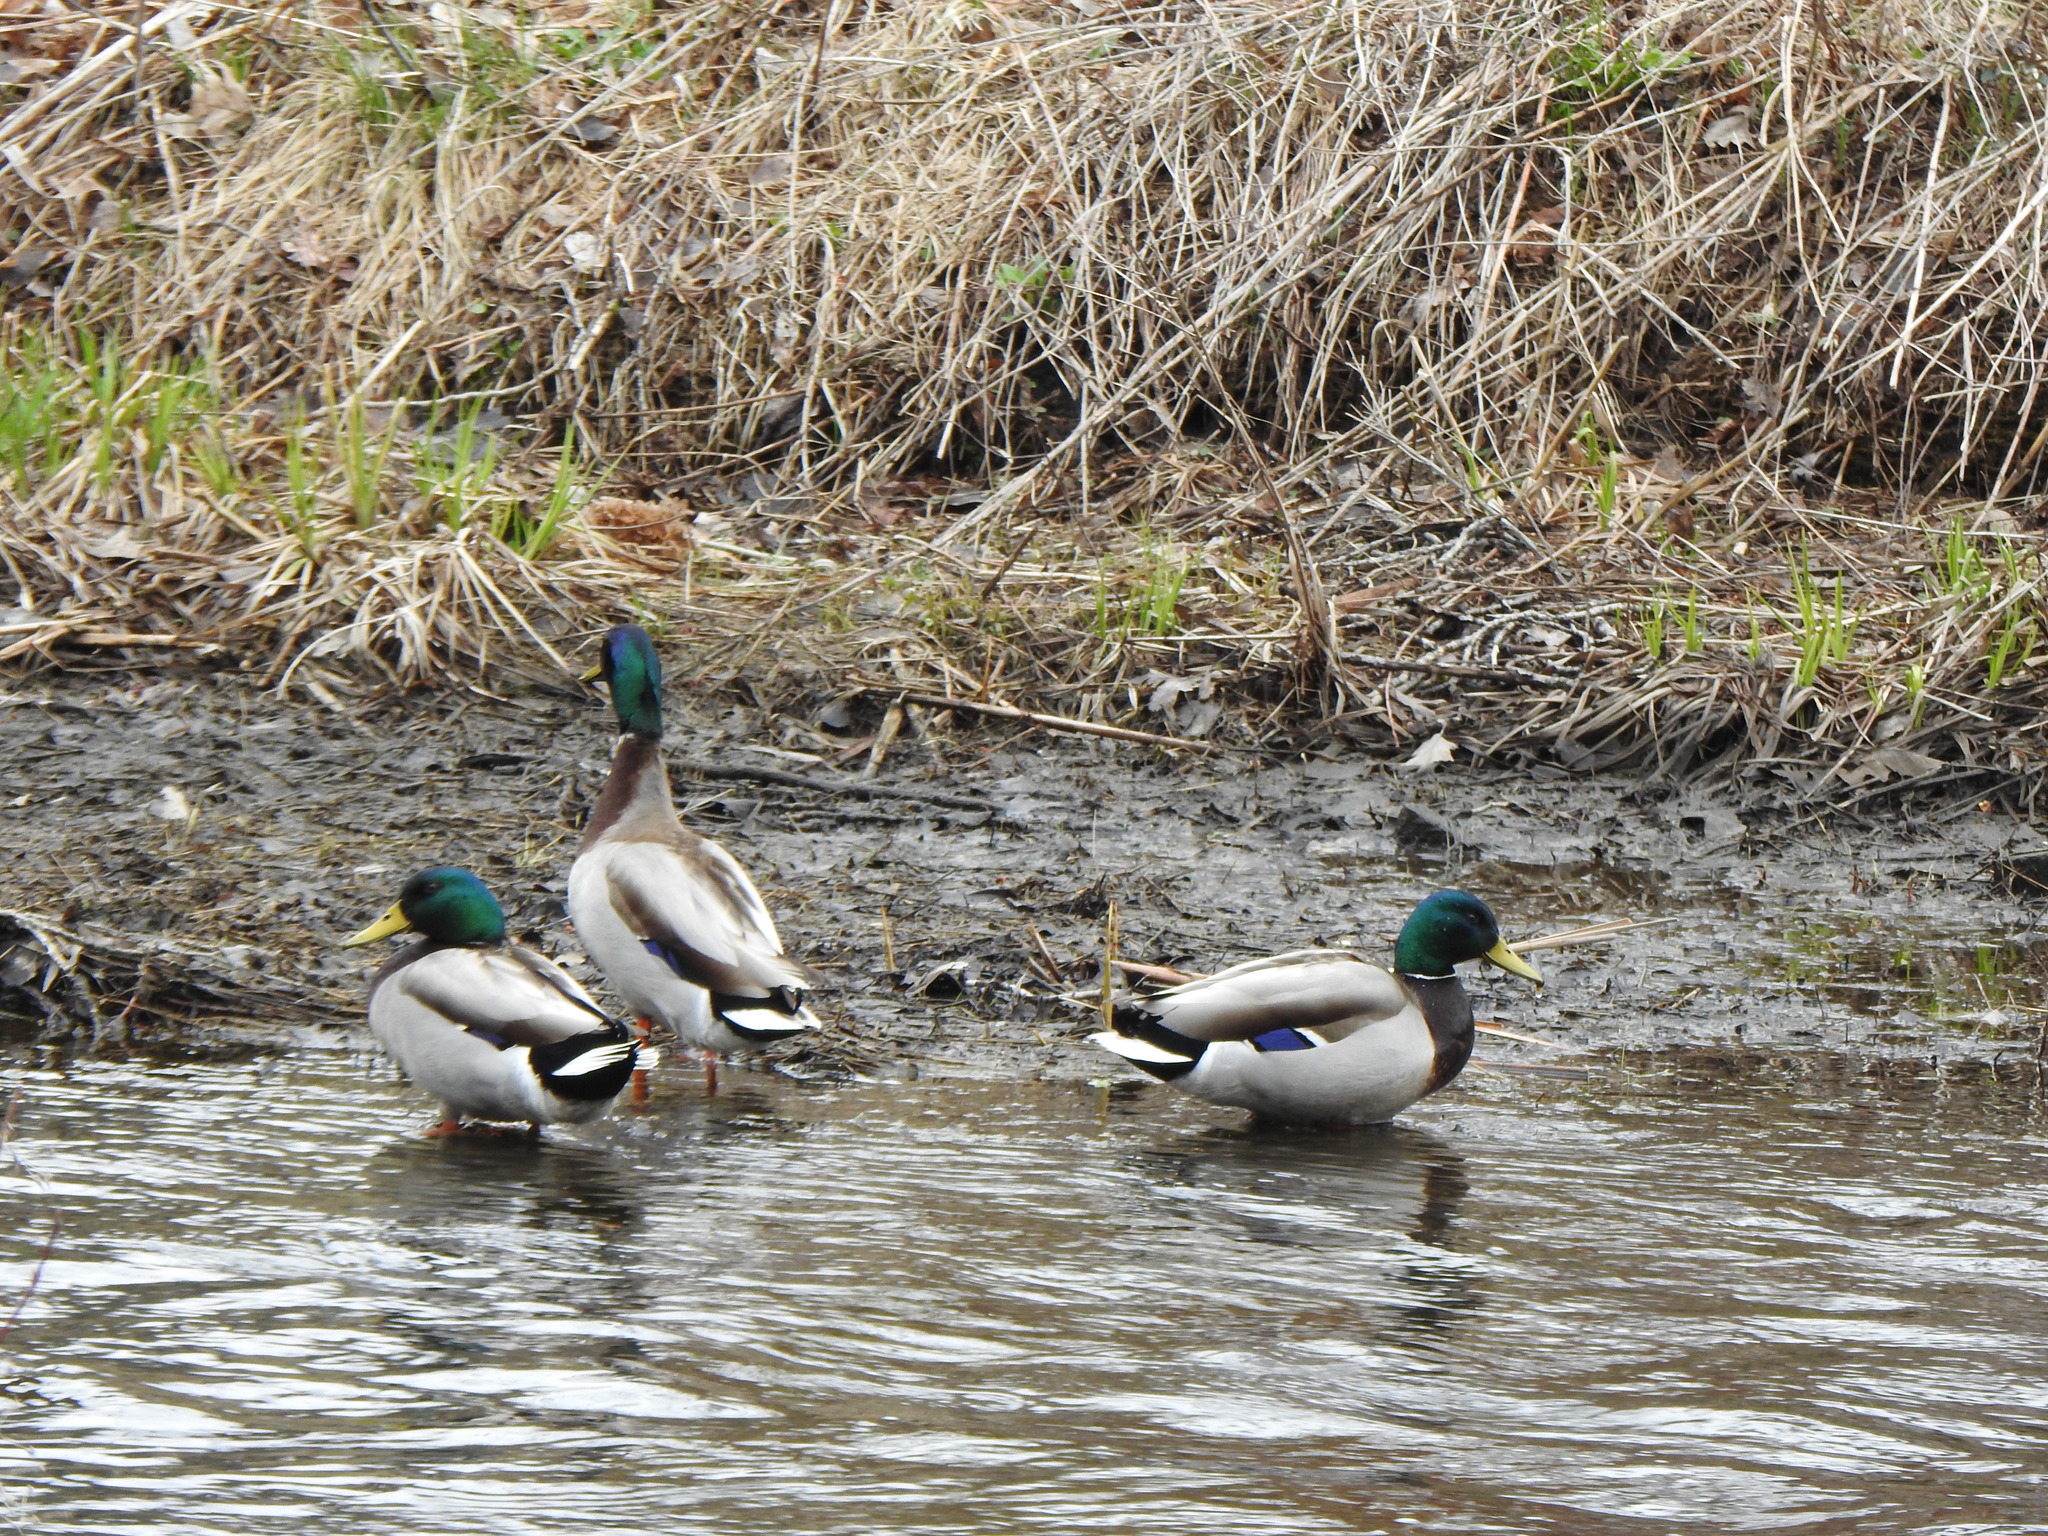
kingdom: Animalia
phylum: Chordata
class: Aves
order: Anseriformes
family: Anatidae
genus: Anas
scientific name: Anas platyrhynchos
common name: Mallard
